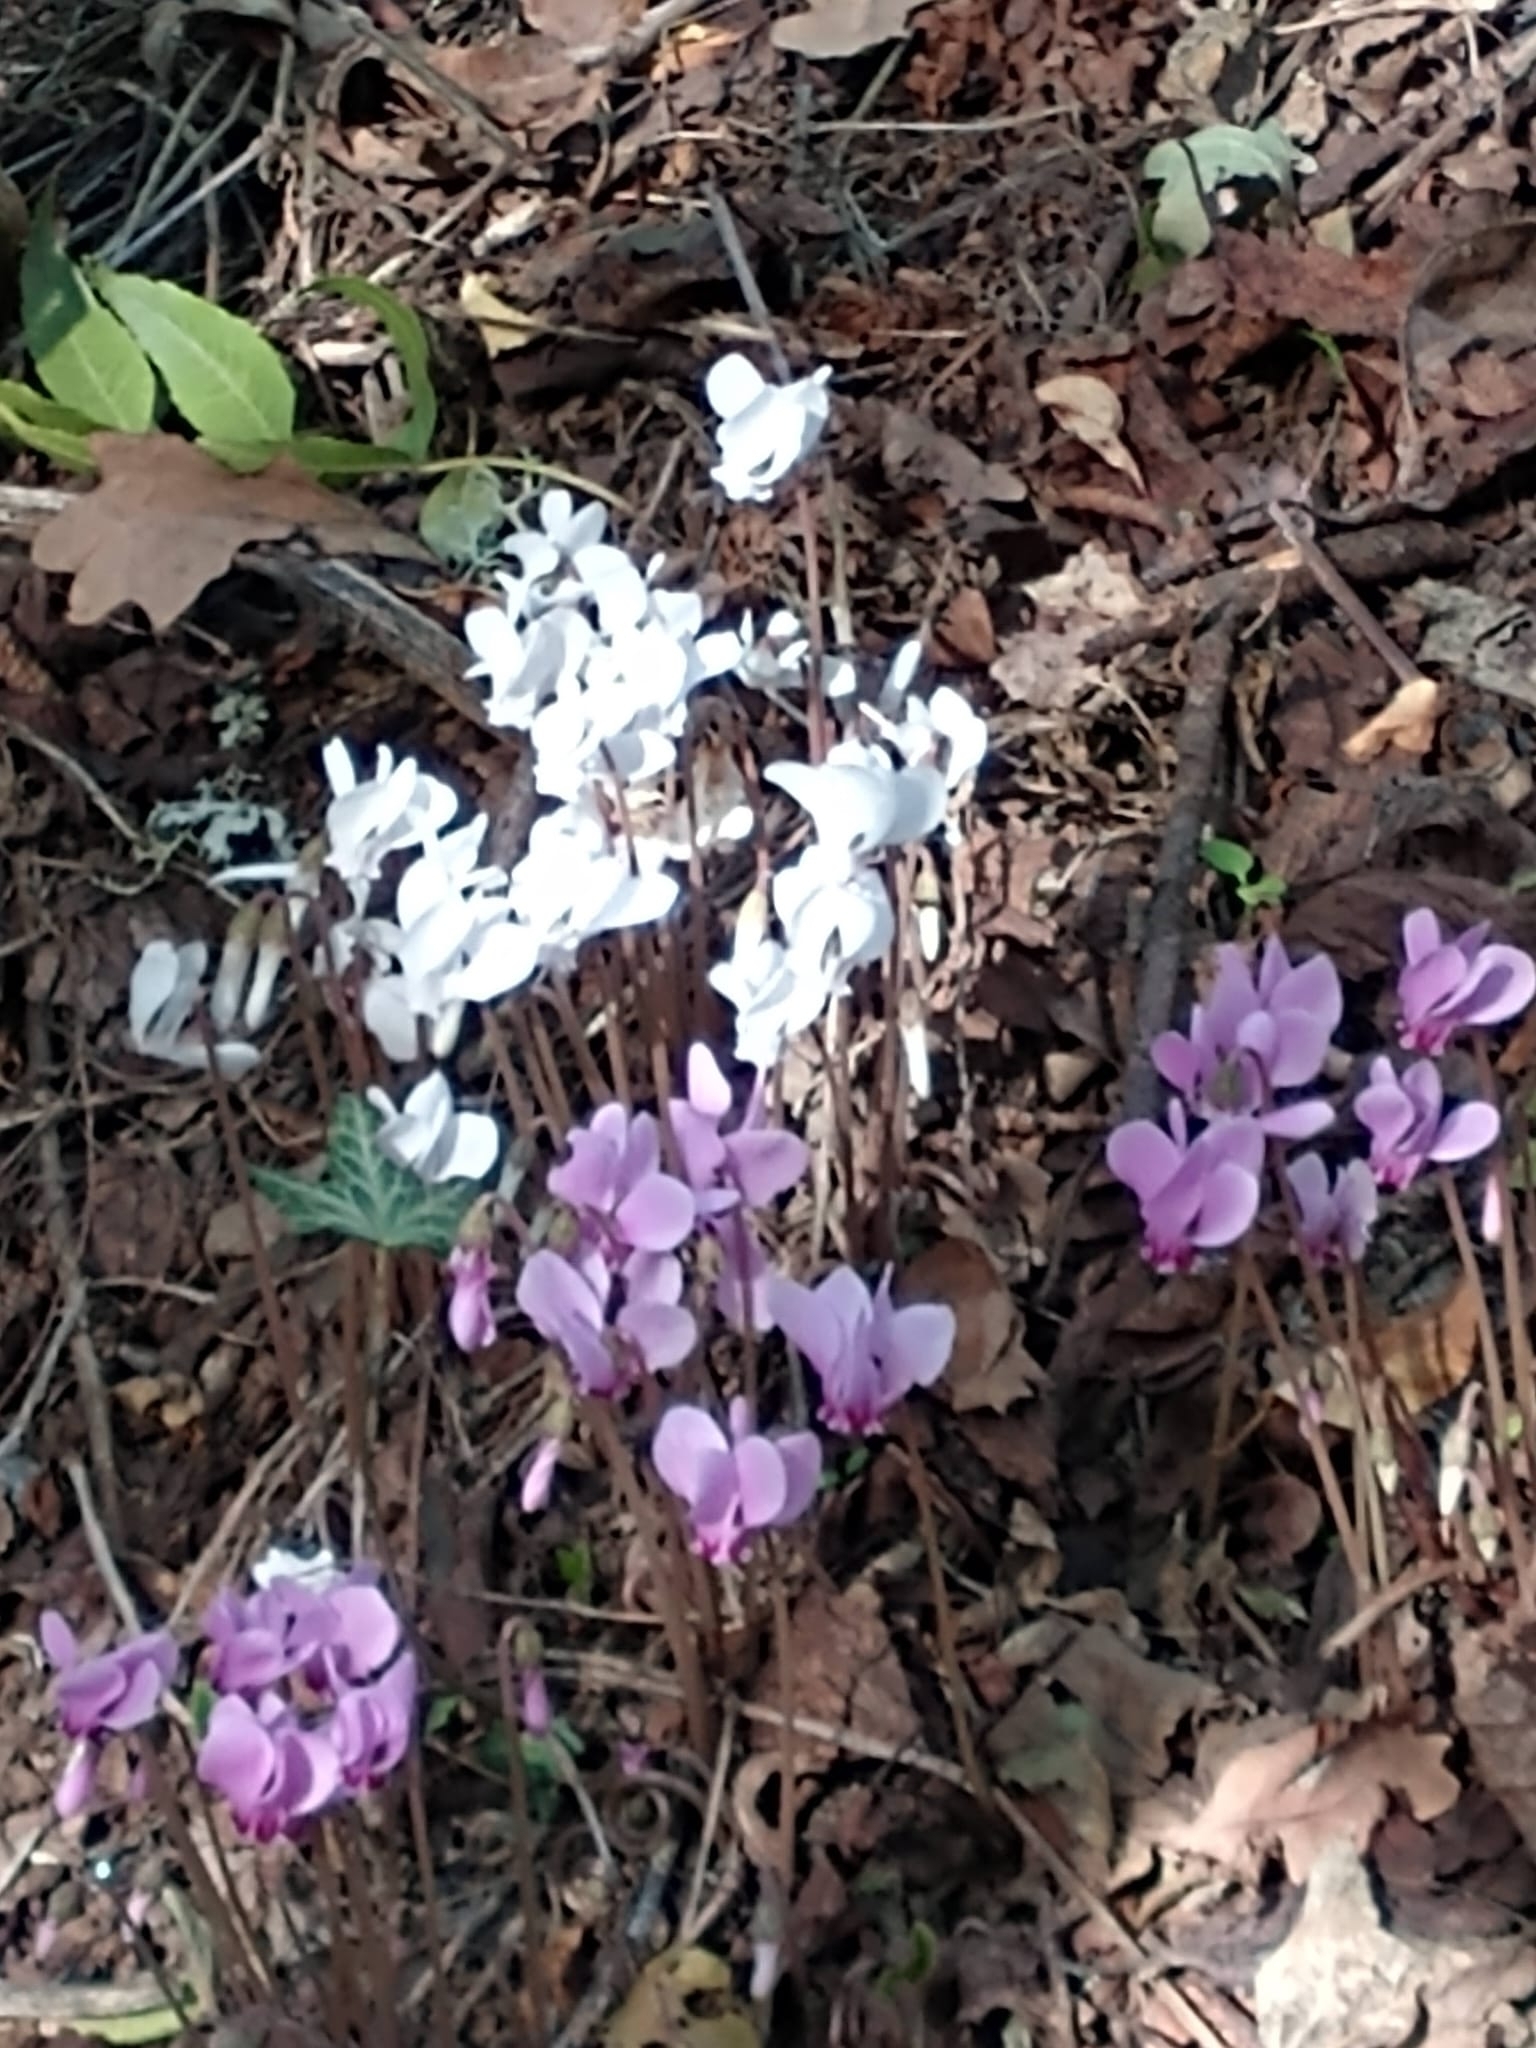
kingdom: Plantae
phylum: Tracheophyta
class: Magnoliopsida
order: Ericales
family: Primulaceae
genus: Cyclamen
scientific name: Cyclamen hederifolium
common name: Sowbread
